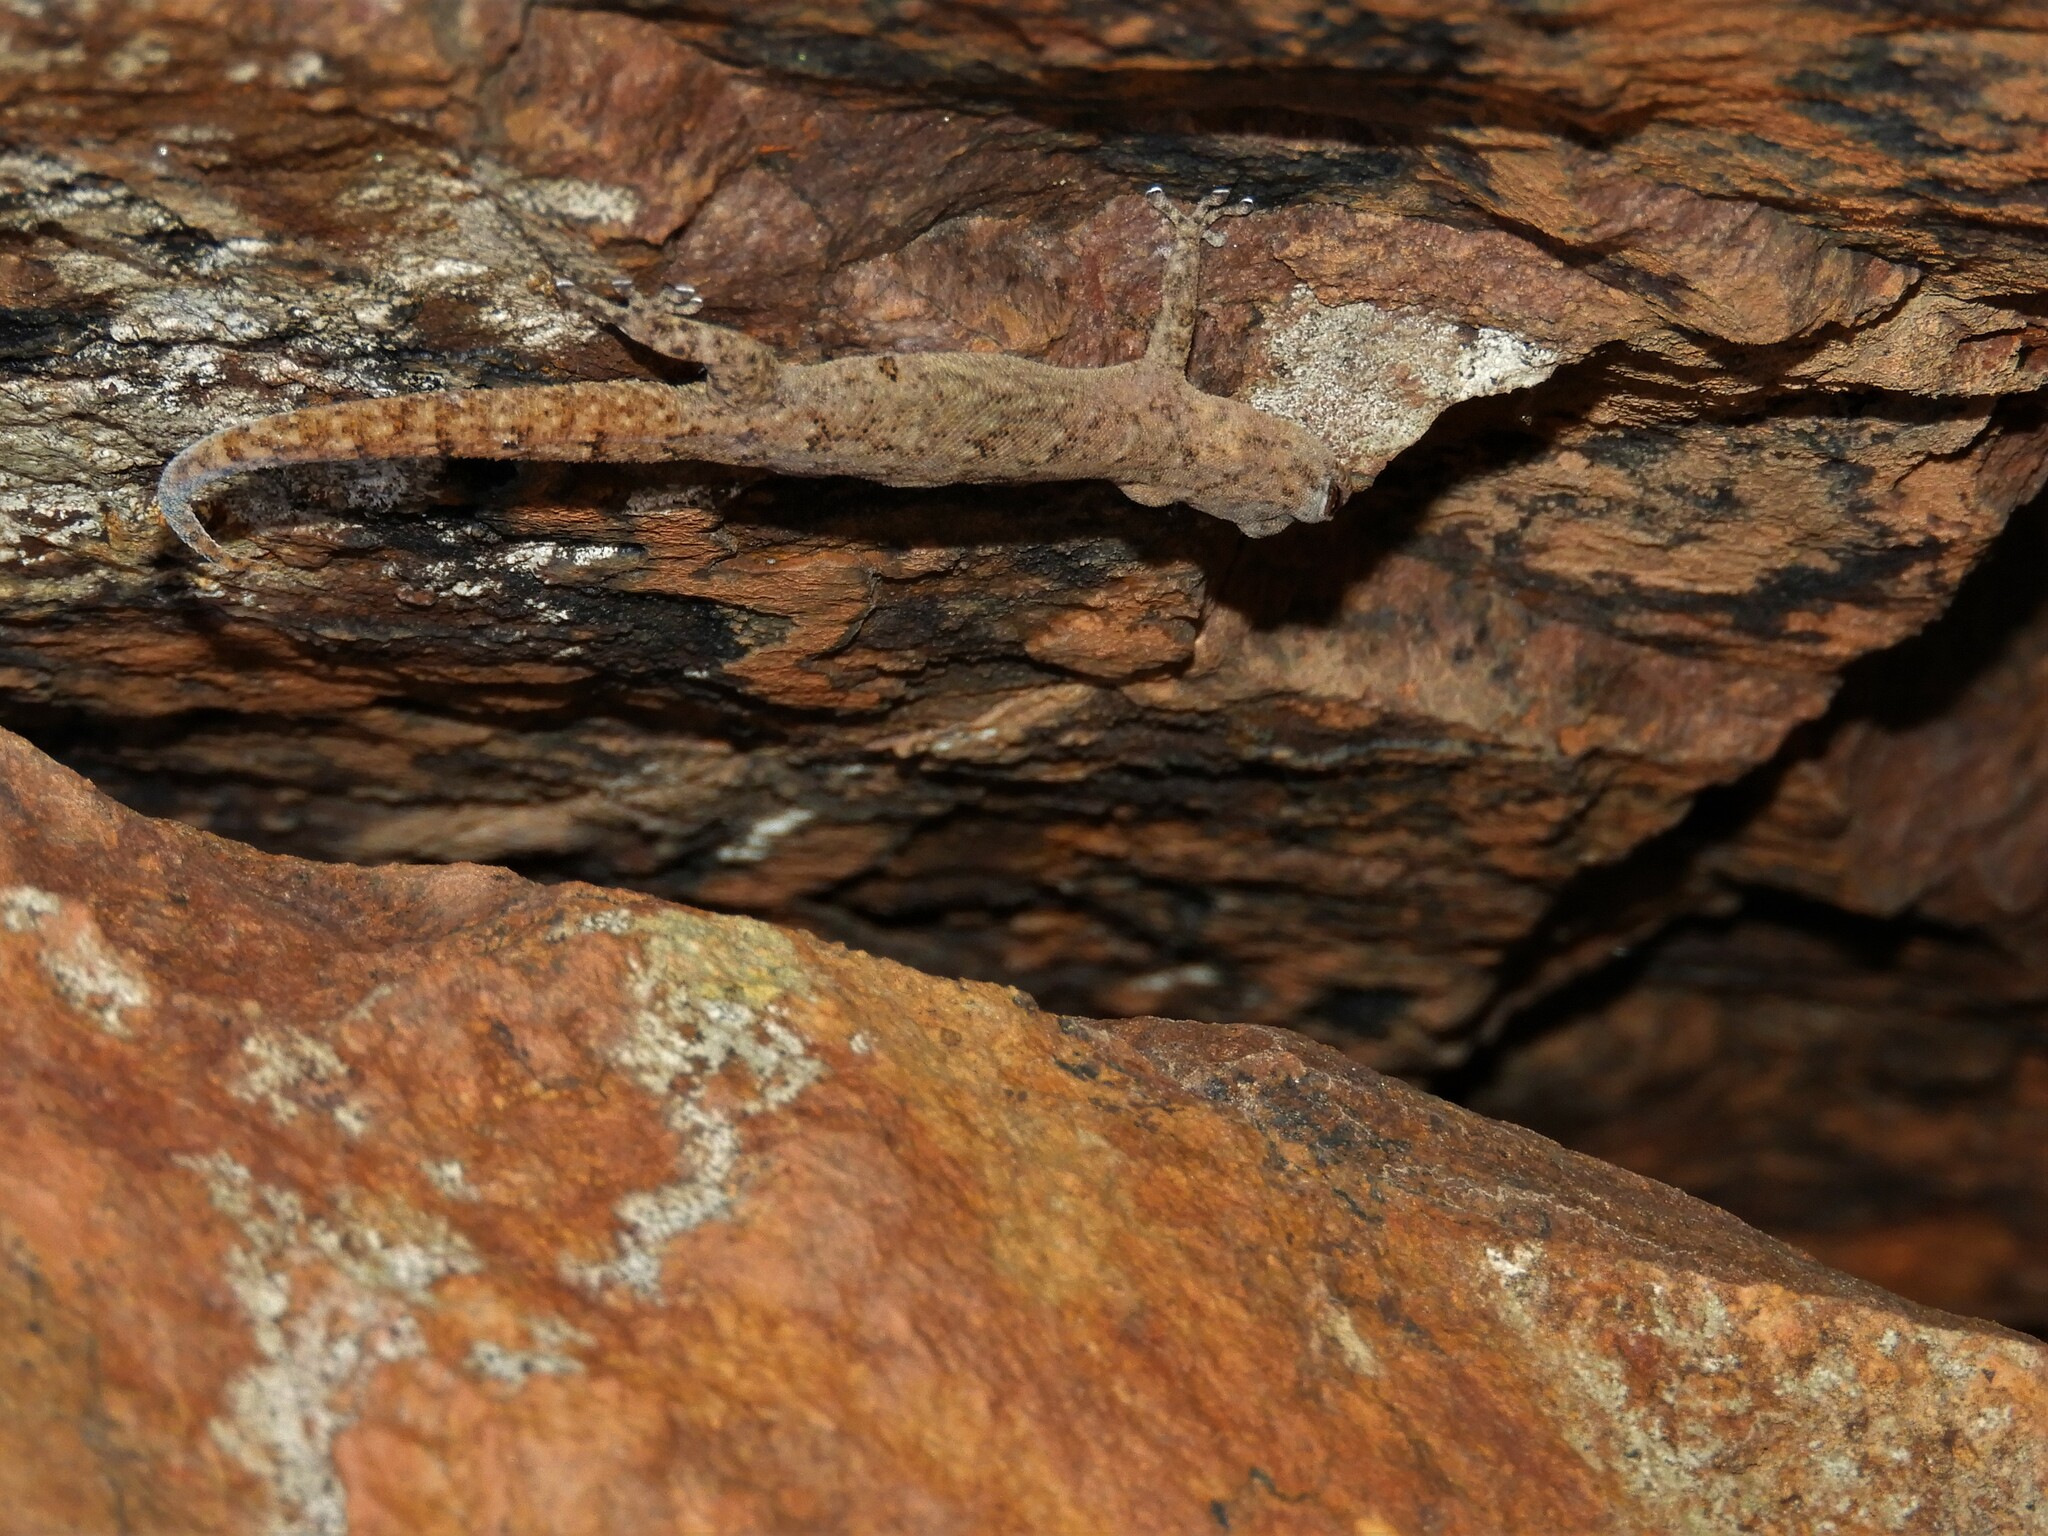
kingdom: Animalia
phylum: Chordata
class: Squamata
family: Gekkonidae
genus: Goggia
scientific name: Goggia hexapora
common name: Cedarberg dwarf leaf-toed gecko
